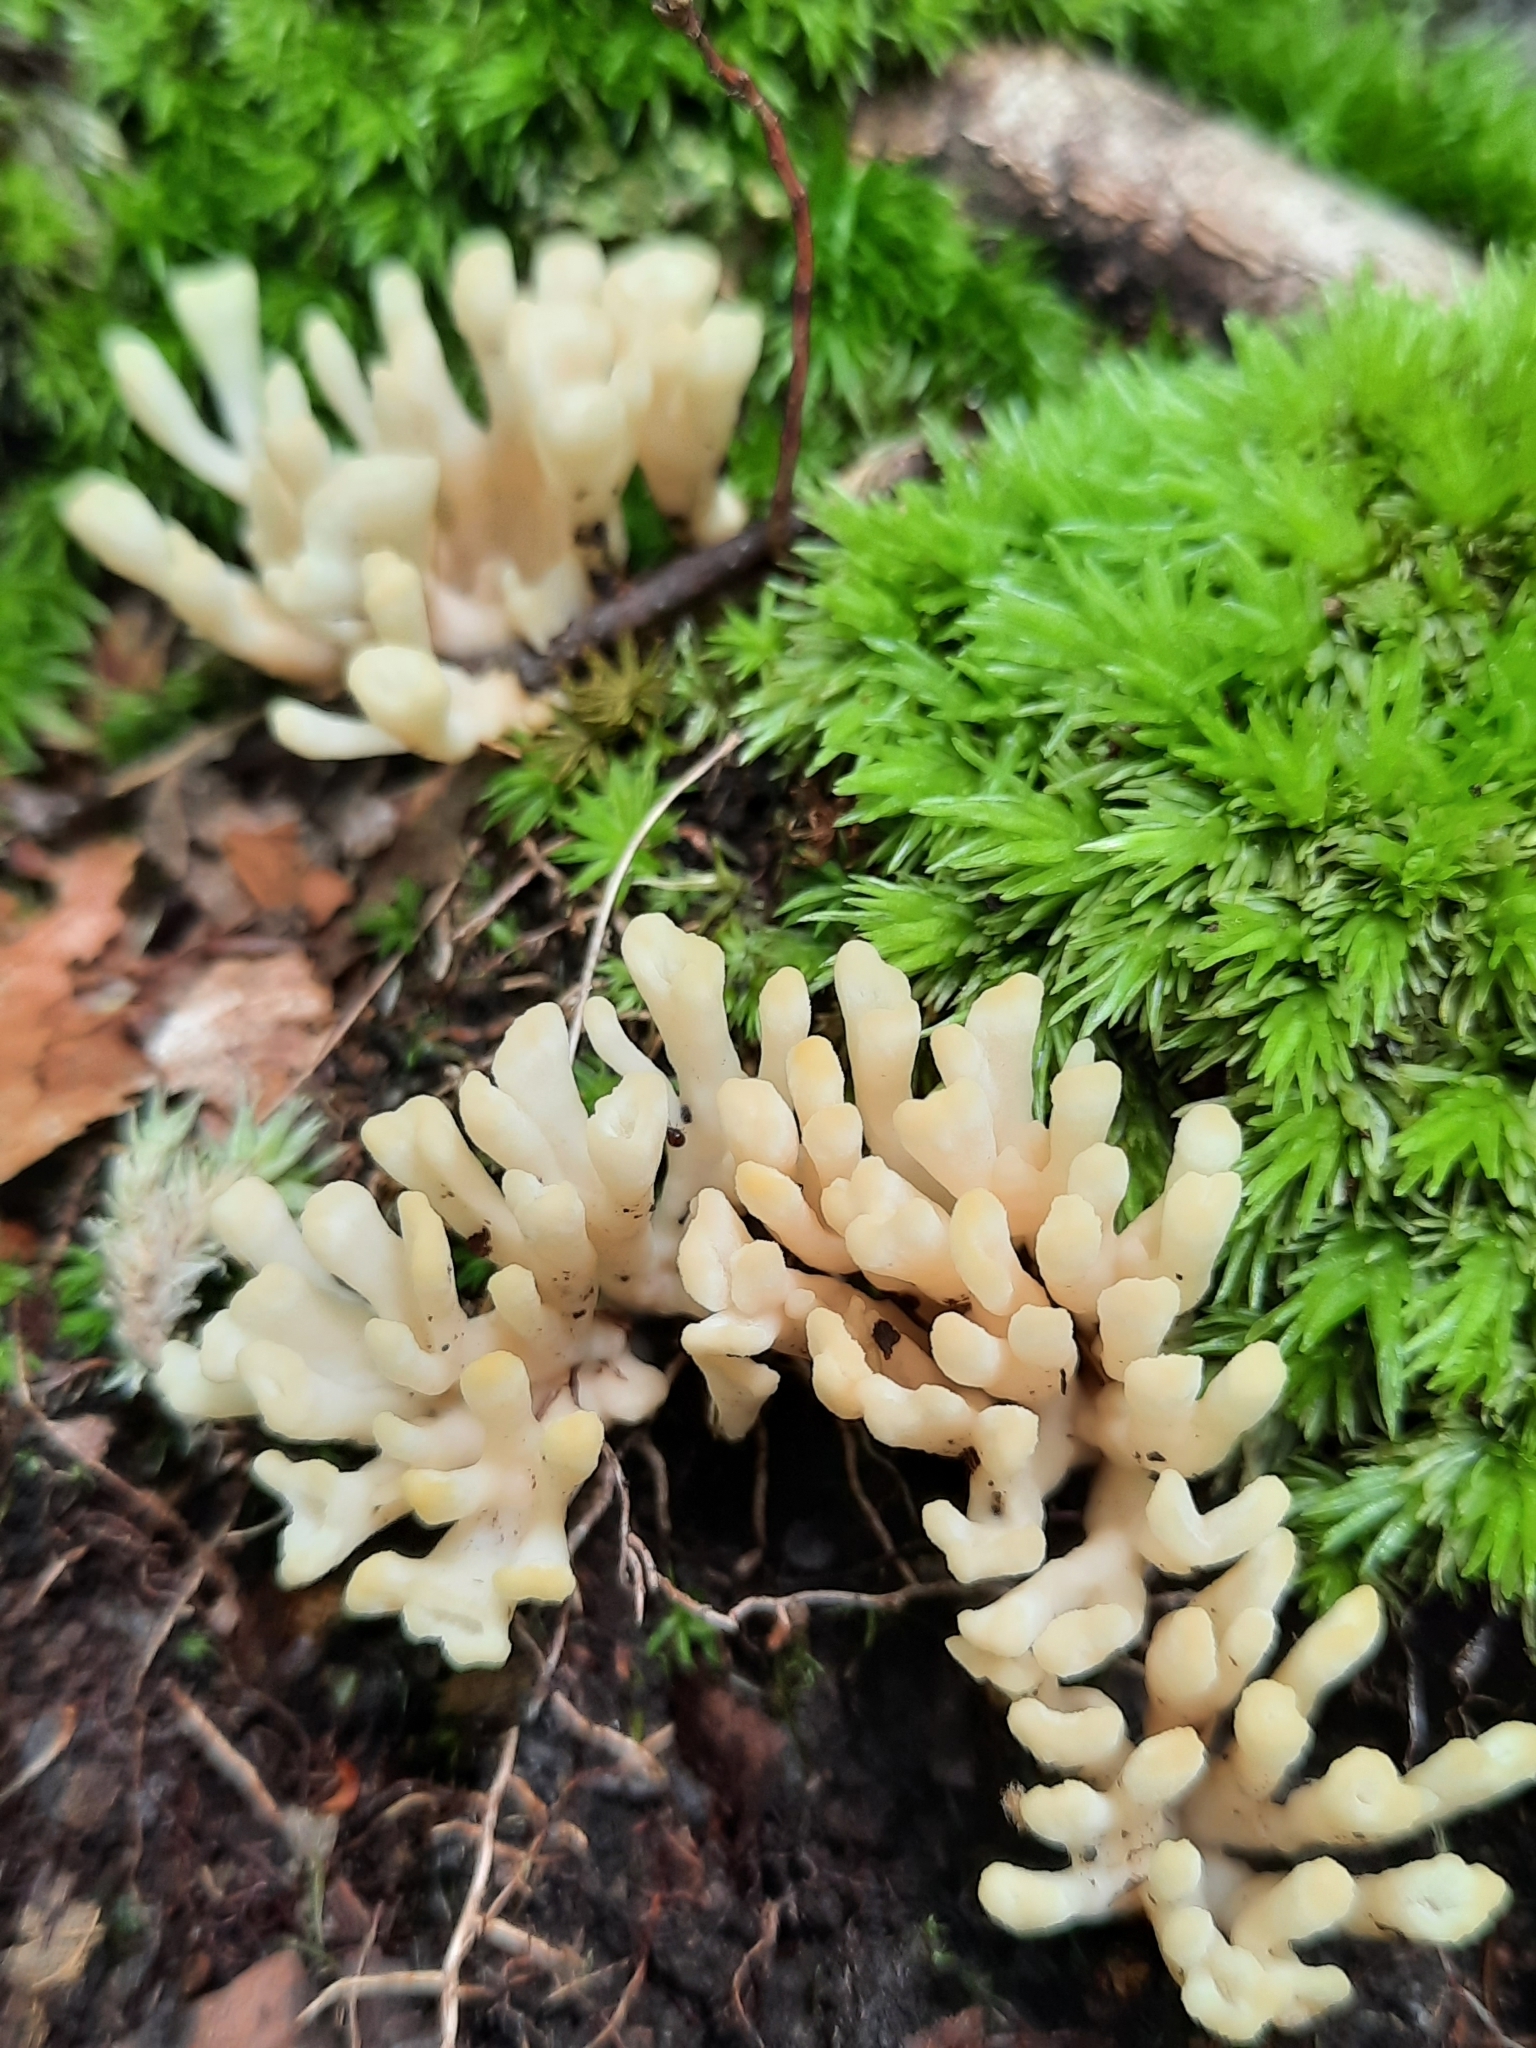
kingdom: Fungi
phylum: Basidiomycota
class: Agaricomycetes
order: Sebacinales
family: Sebacinaceae
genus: Sebacina
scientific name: Sebacina schweinitzii
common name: Jellied false coral fungus
